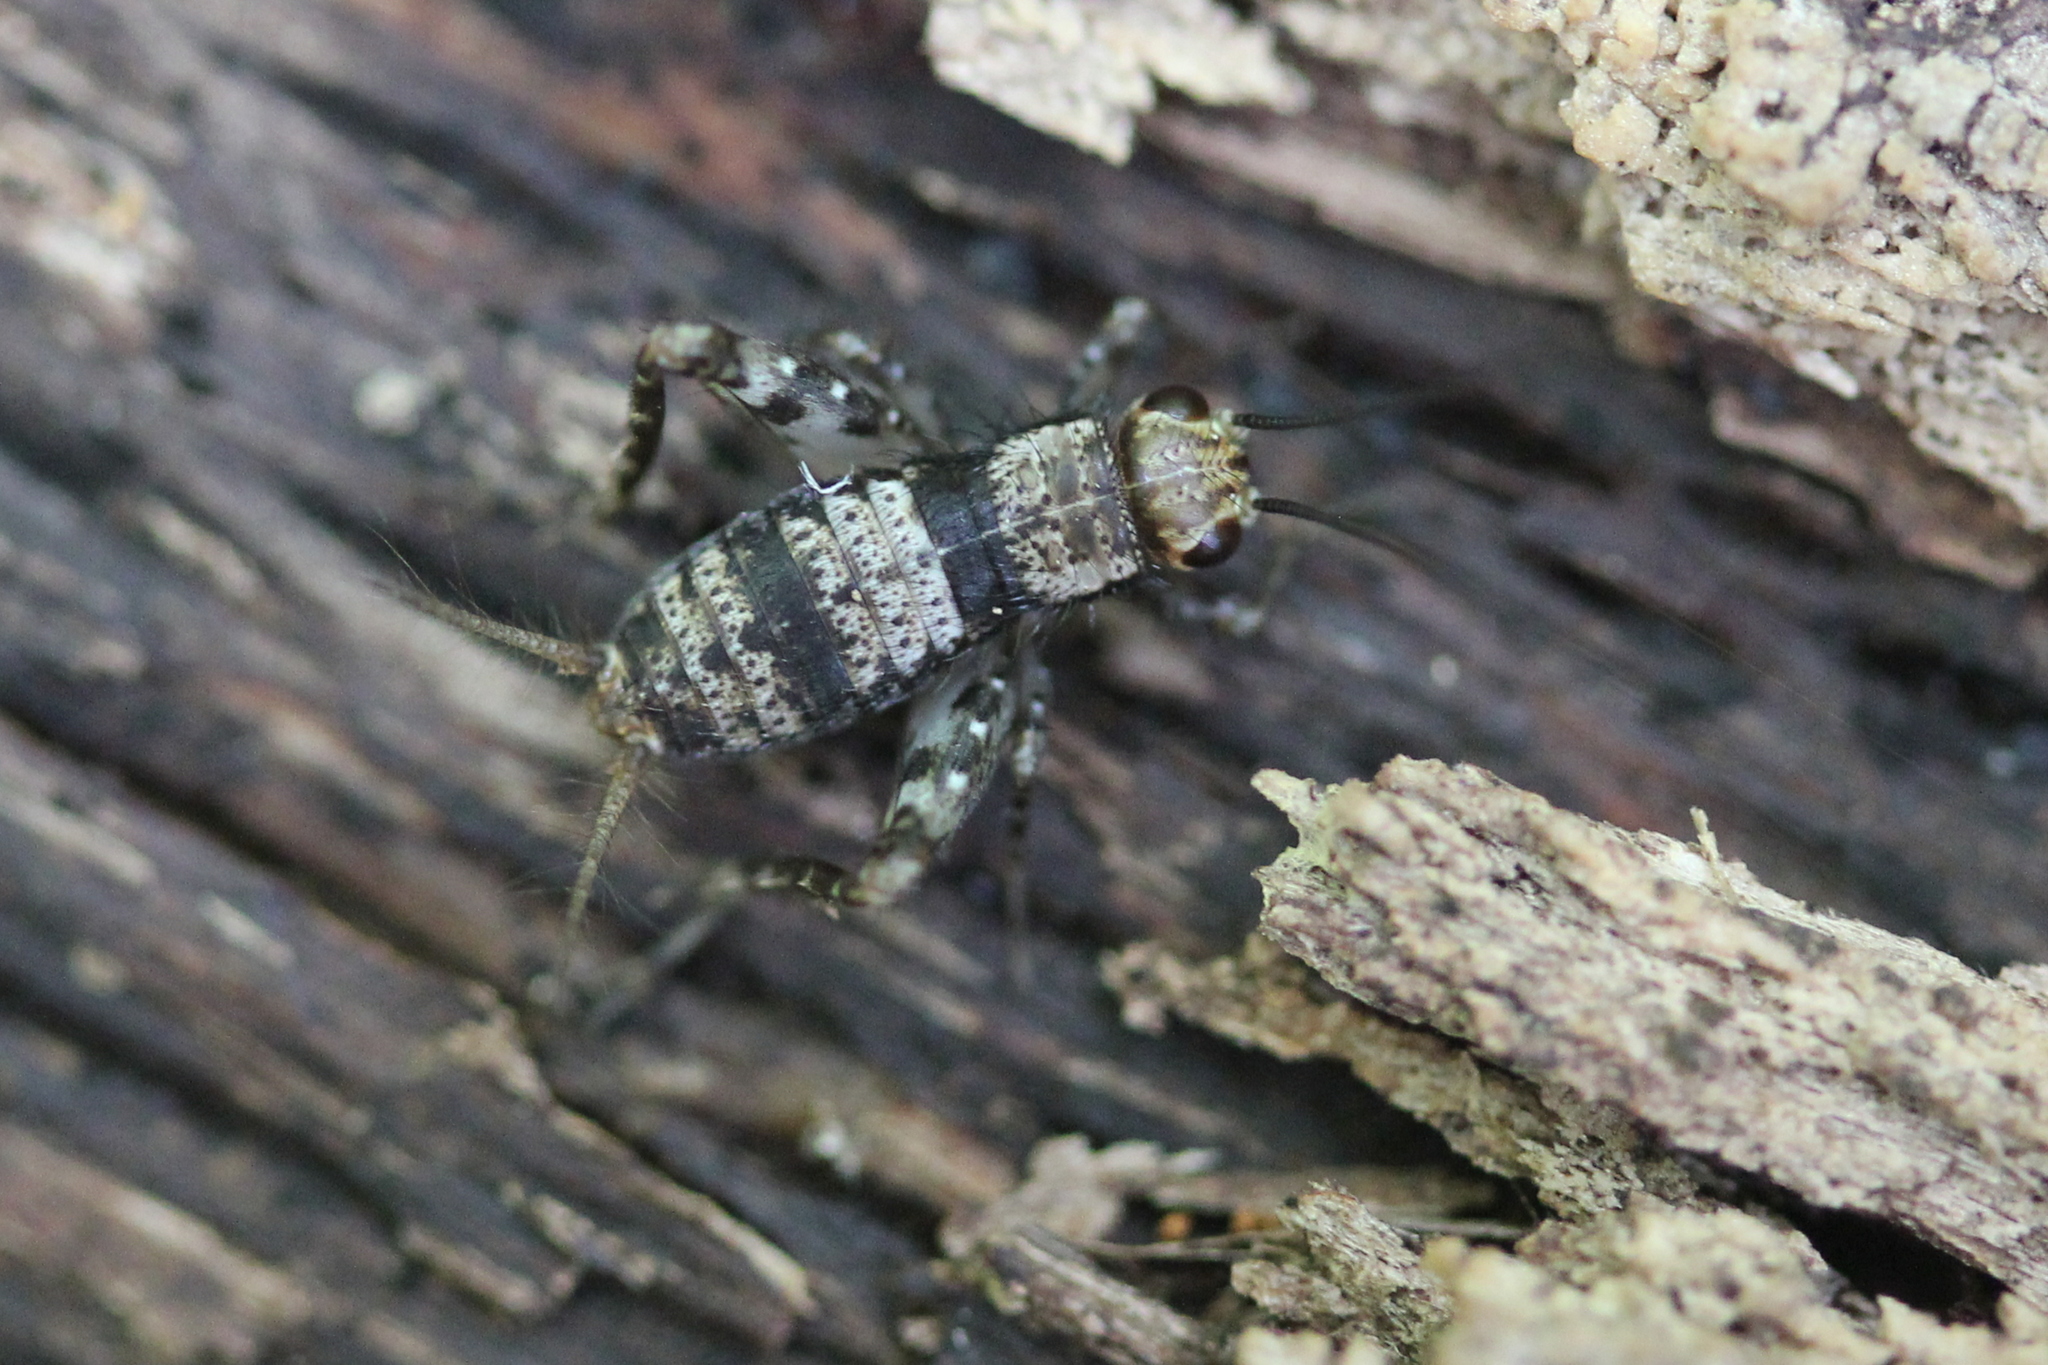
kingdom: Animalia
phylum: Arthropoda
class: Insecta
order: Orthoptera
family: Trigonidiidae
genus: Allonemobius
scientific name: Allonemobius maculatus
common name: Larger spotted ground cricket
